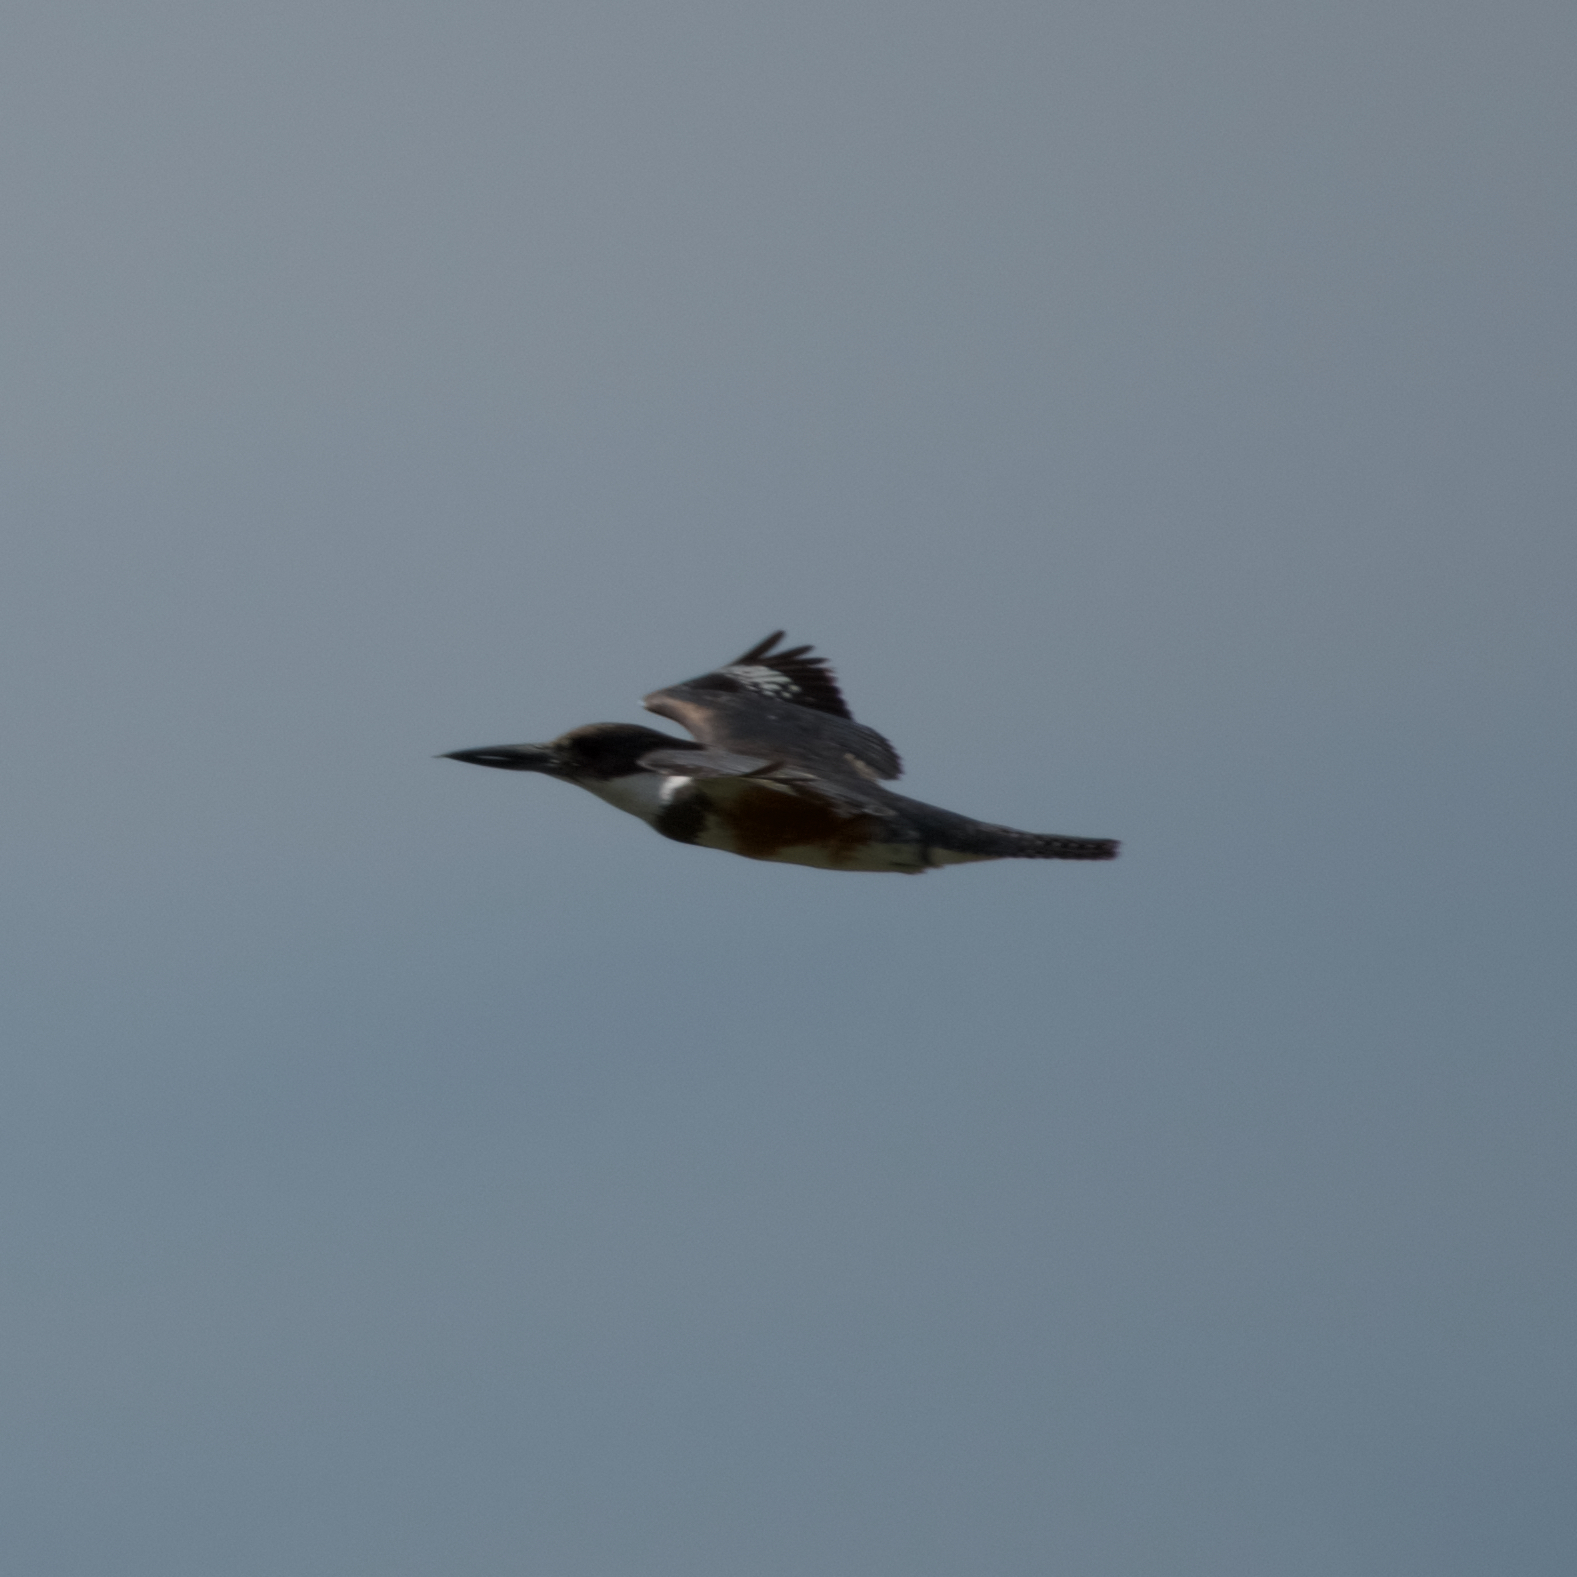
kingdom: Animalia
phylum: Chordata
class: Aves
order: Coraciiformes
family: Alcedinidae
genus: Megaceryle
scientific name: Megaceryle alcyon
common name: Belted kingfisher
